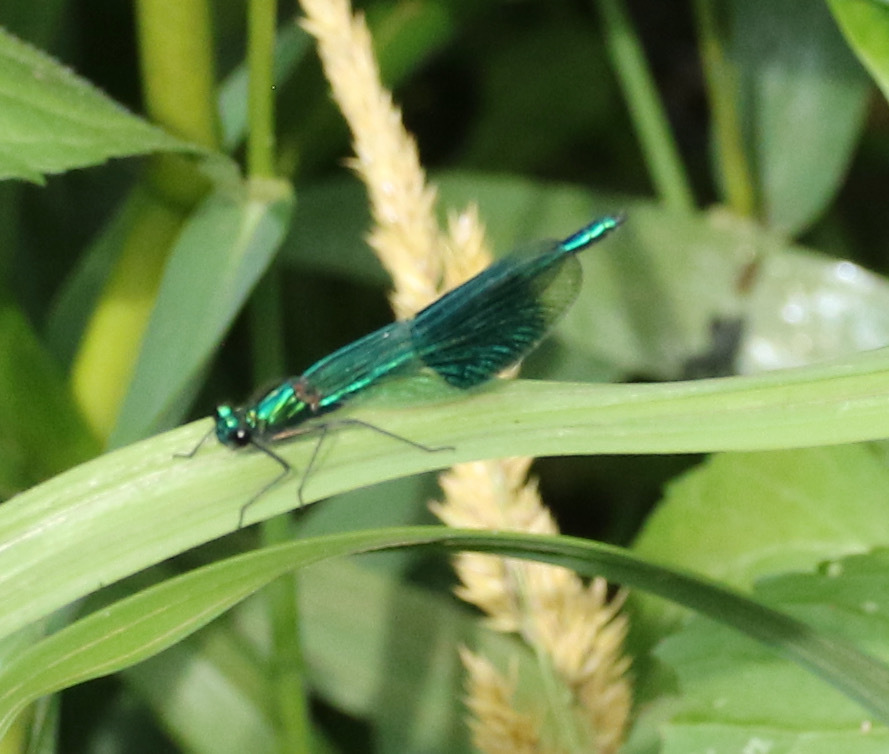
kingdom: Animalia
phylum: Arthropoda
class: Insecta
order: Odonata
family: Calopterygidae
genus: Calopteryx
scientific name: Calopteryx splendens
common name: Banded demoiselle
